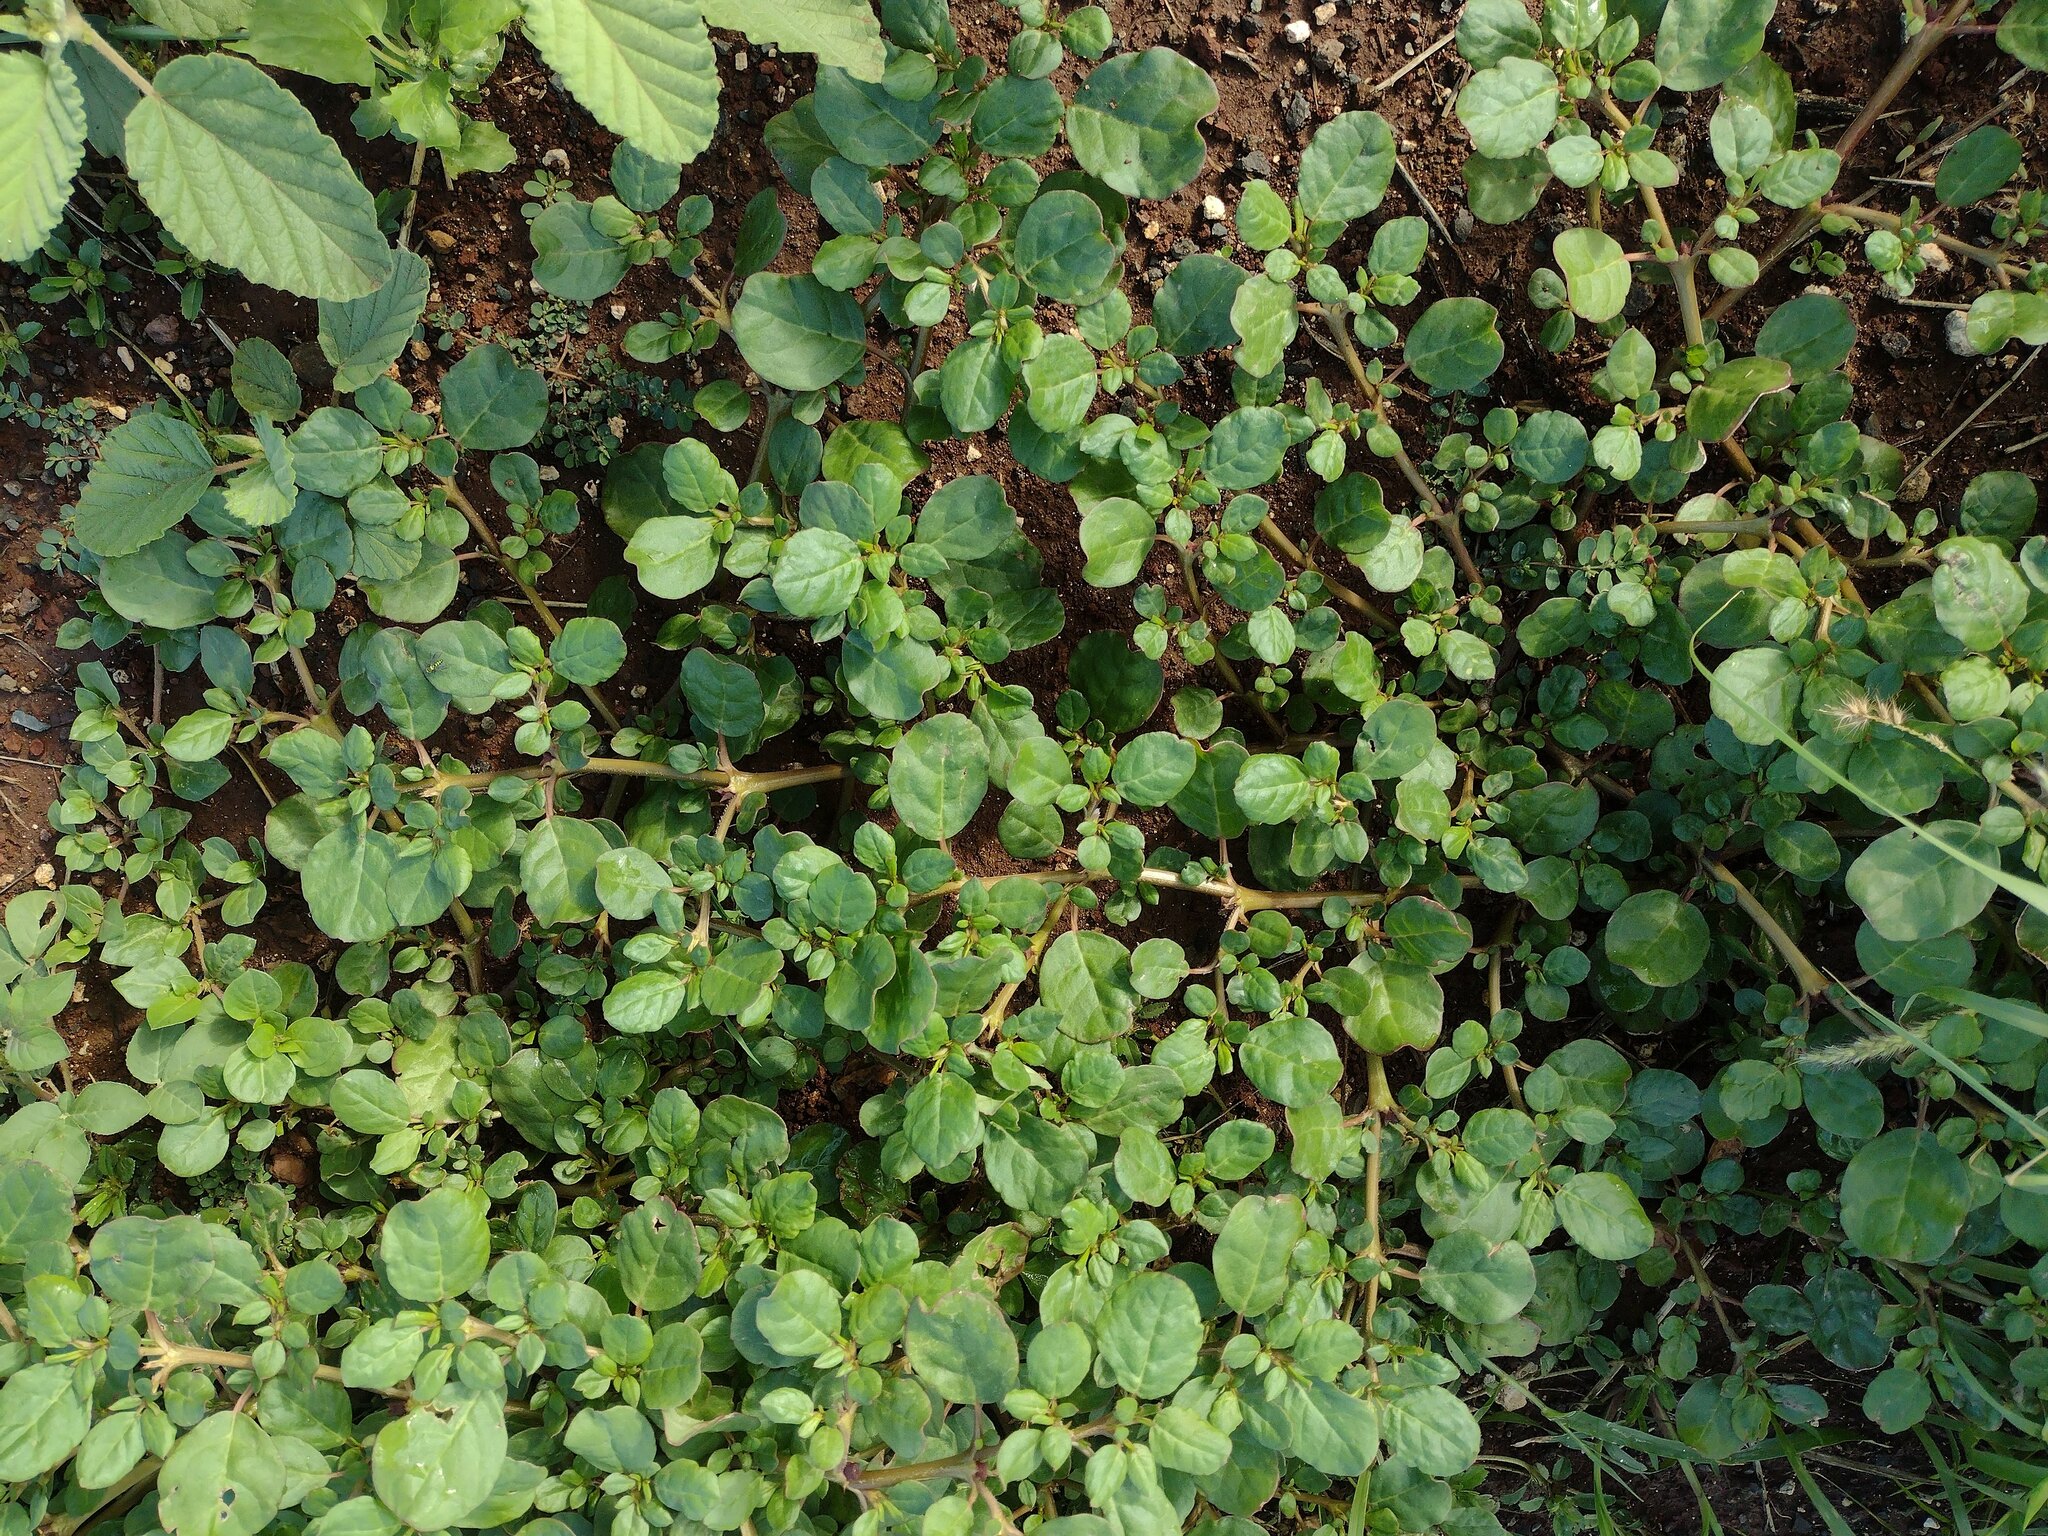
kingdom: Plantae
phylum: Tracheophyta
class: Magnoliopsida
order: Caryophyllales
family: Aizoaceae
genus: Trianthema
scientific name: Trianthema portulacastrum
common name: Desert horsepurslane
